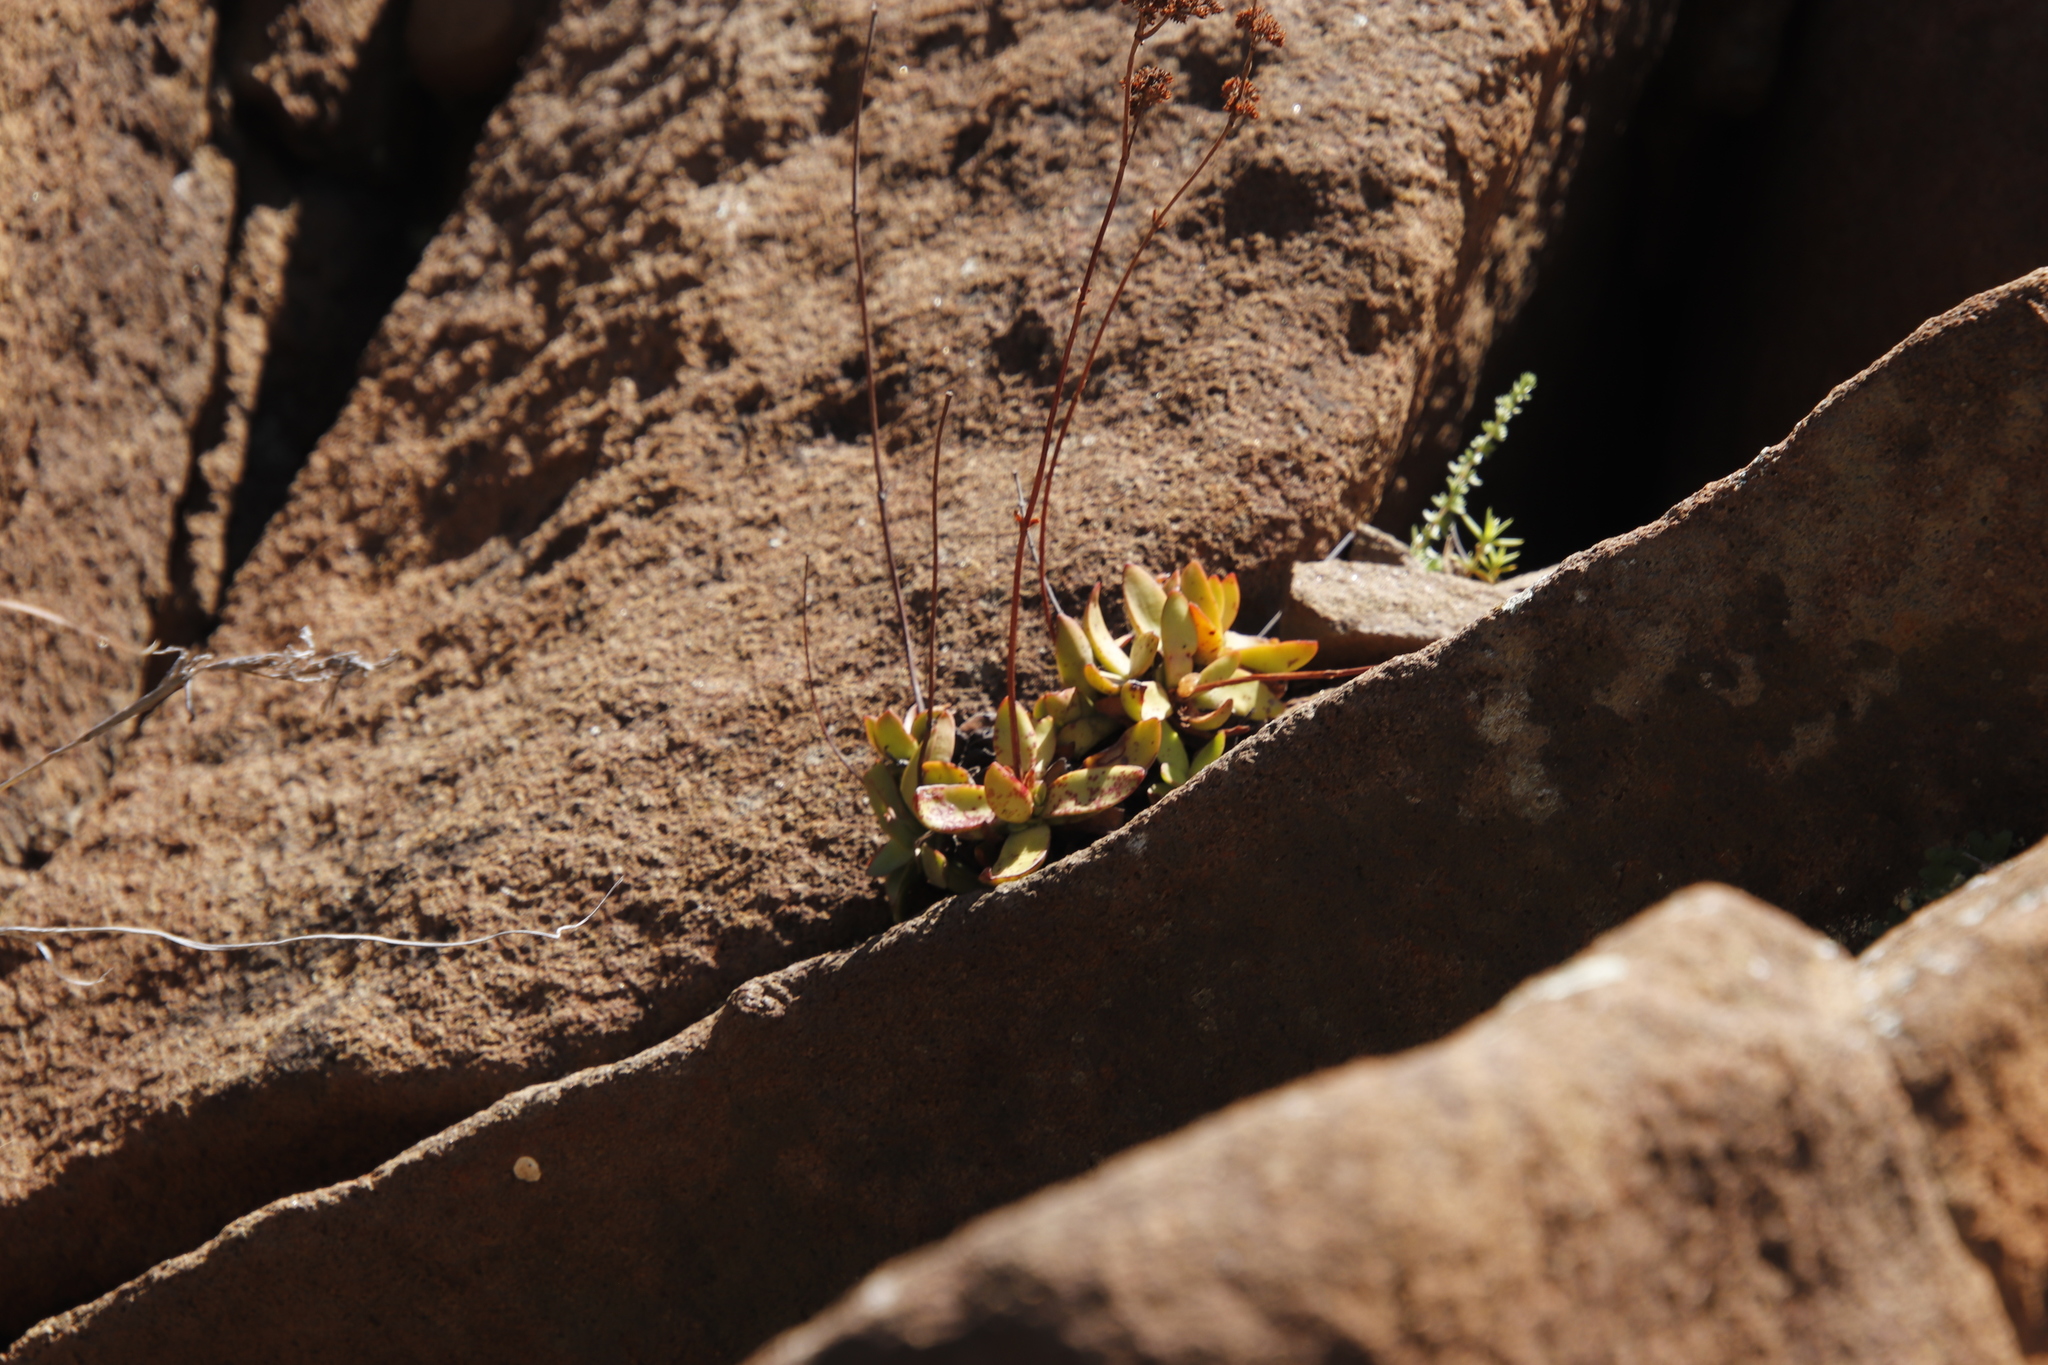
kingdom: Plantae
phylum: Tracheophyta
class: Magnoliopsida
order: Saxifragales
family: Crassulaceae
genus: Crassula
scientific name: Crassula nudicaulis
